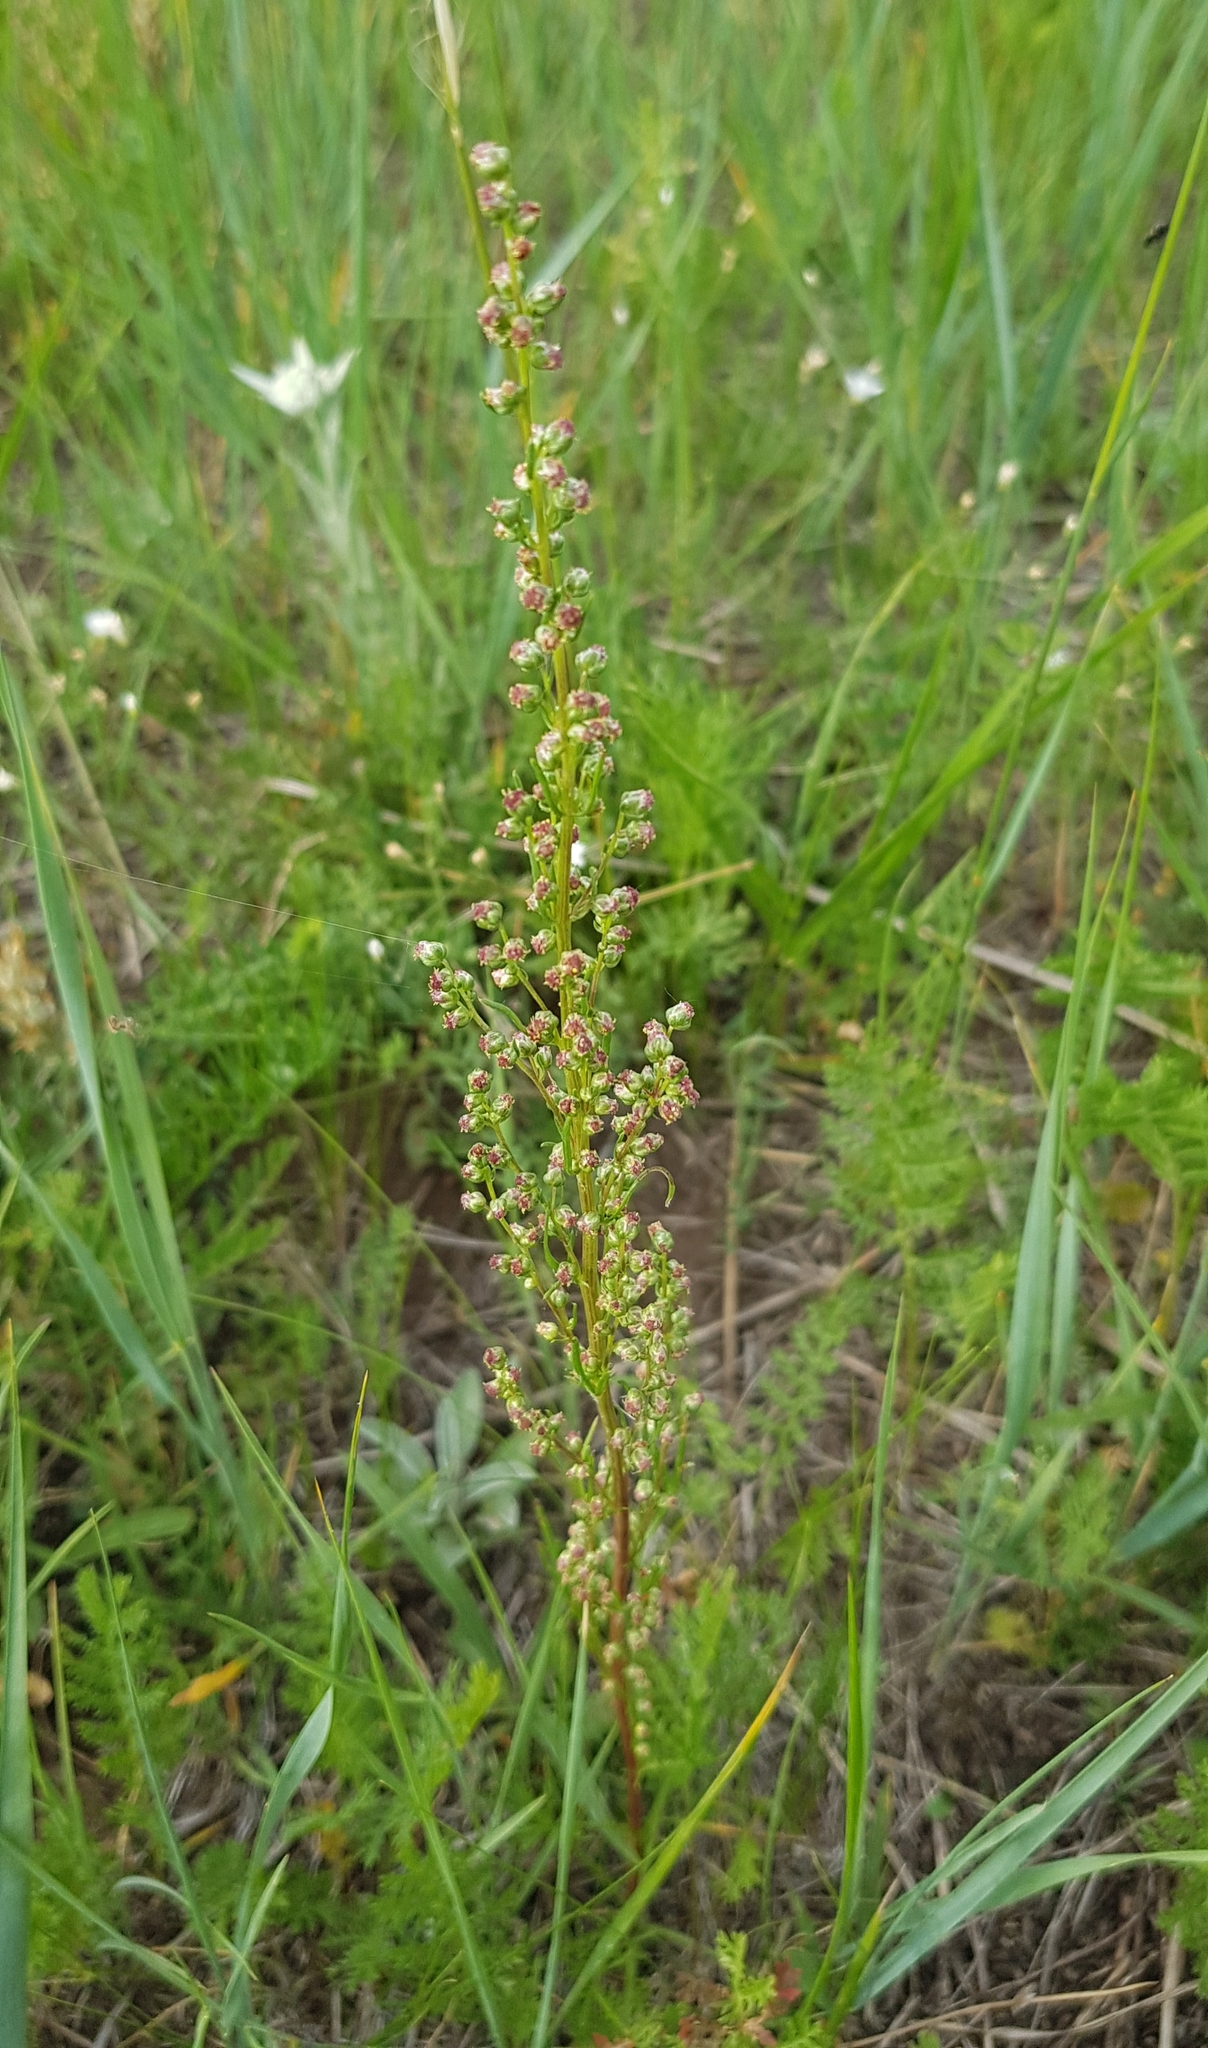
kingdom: Plantae
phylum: Tracheophyta
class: Magnoliopsida
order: Asterales
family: Asteraceae
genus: Artemisia
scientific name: Artemisia pubescens
